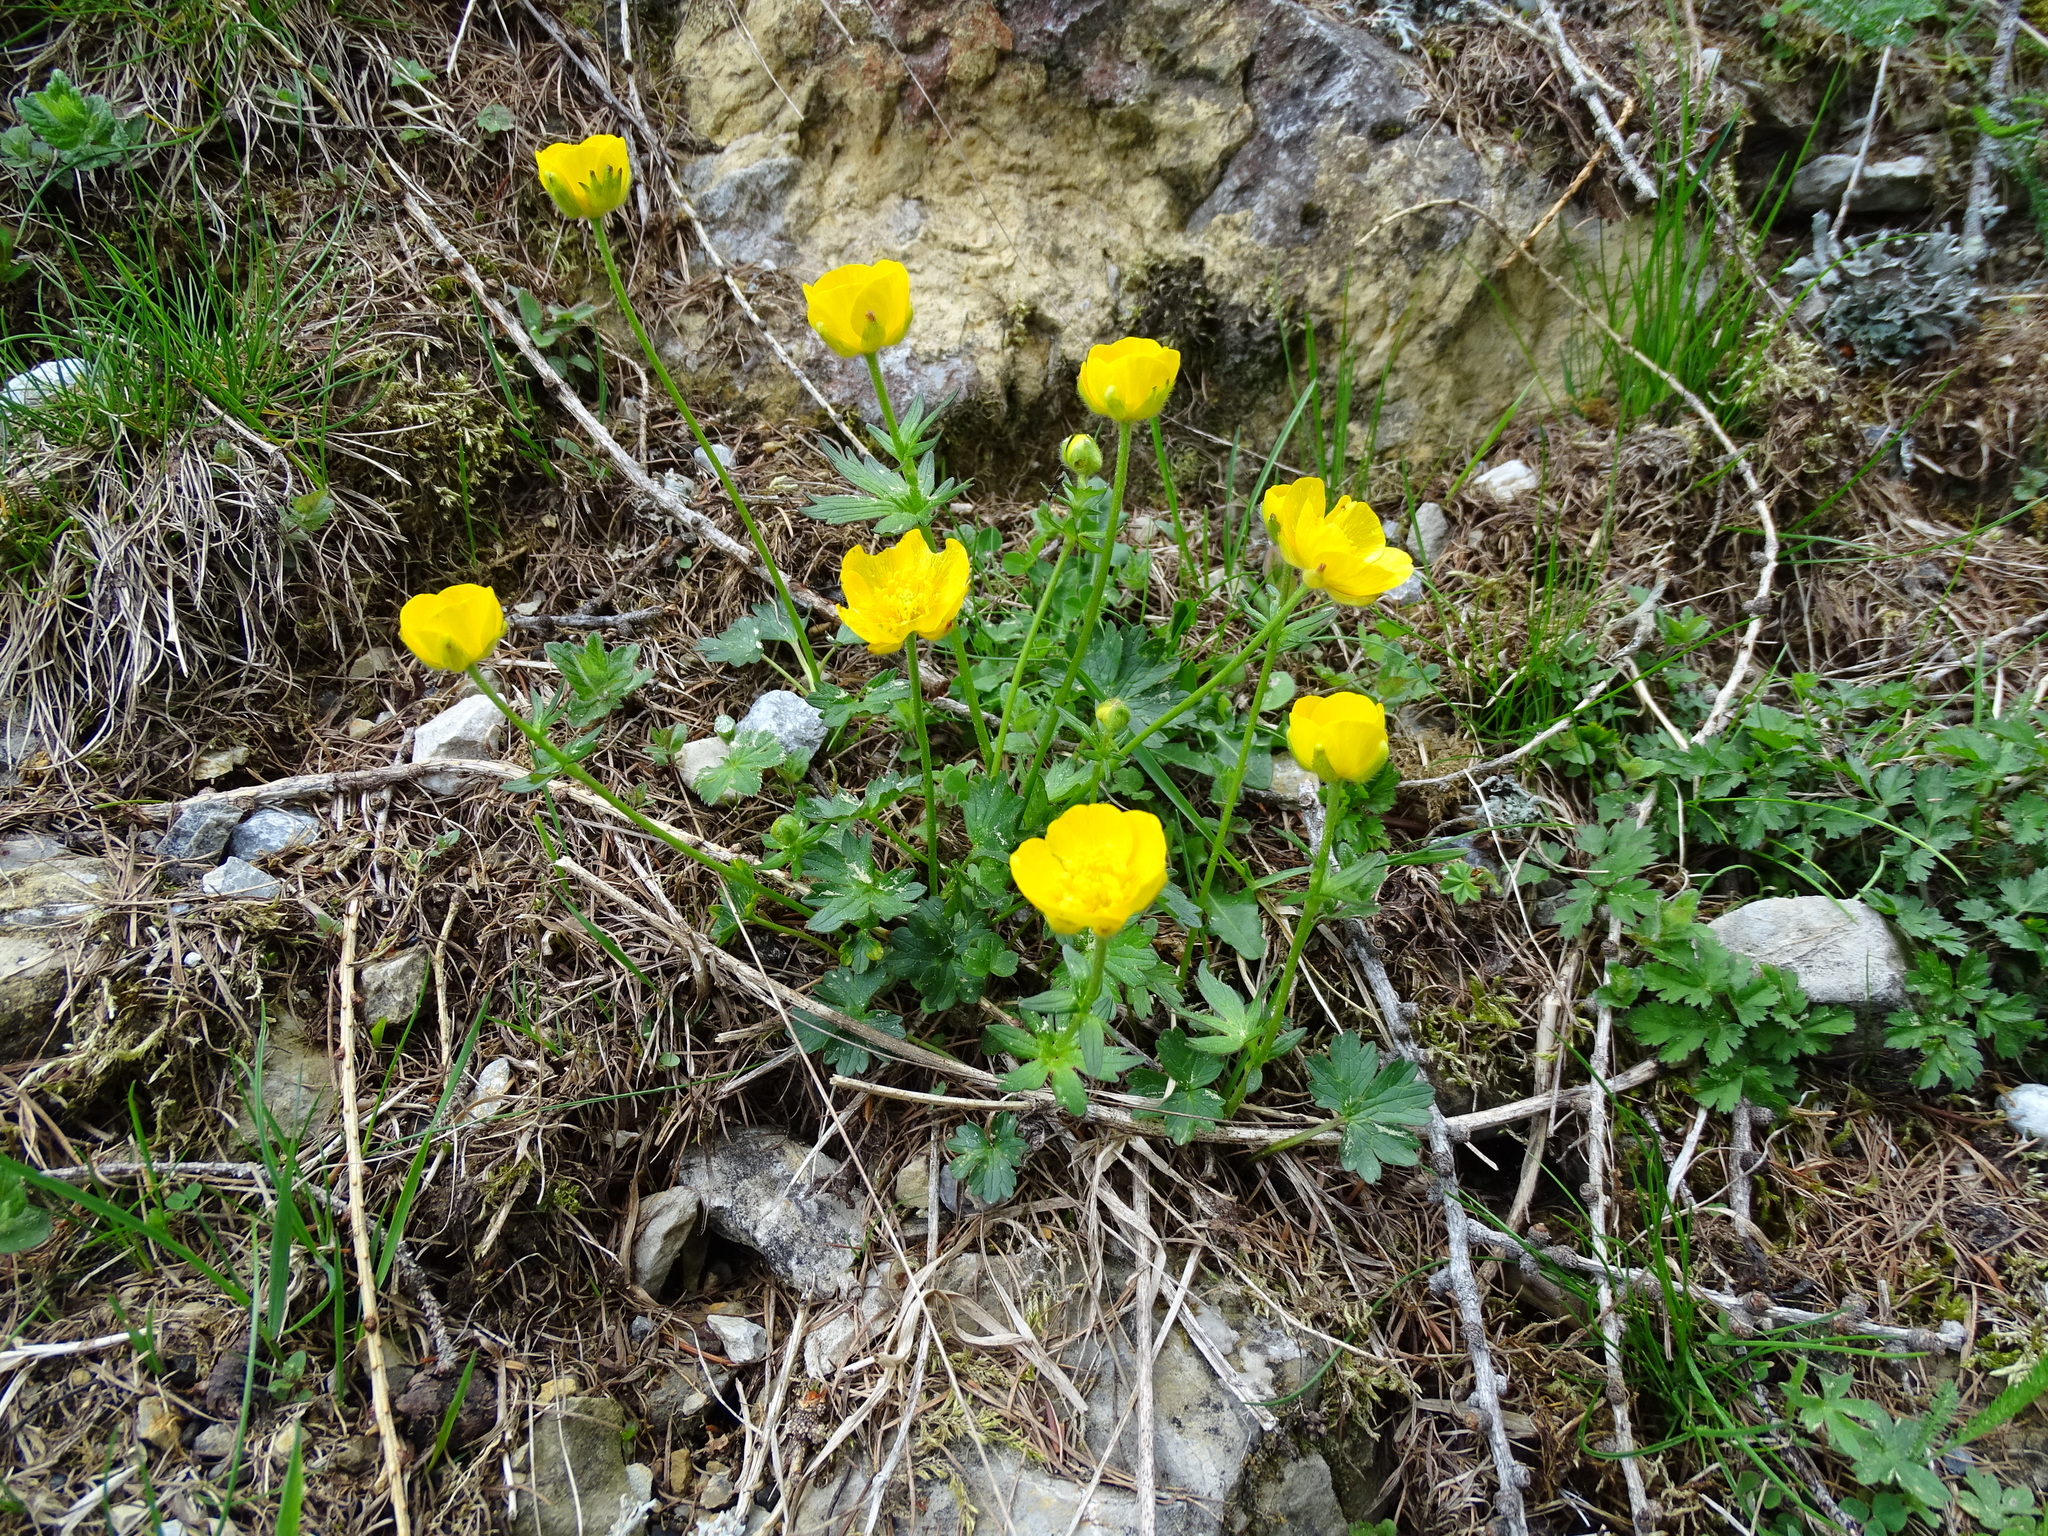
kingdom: Plantae
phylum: Tracheophyta
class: Magnoliopsida
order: Ranunculales
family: Ranunculaceae
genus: Ranunculus
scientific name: Ranunculus montanus
